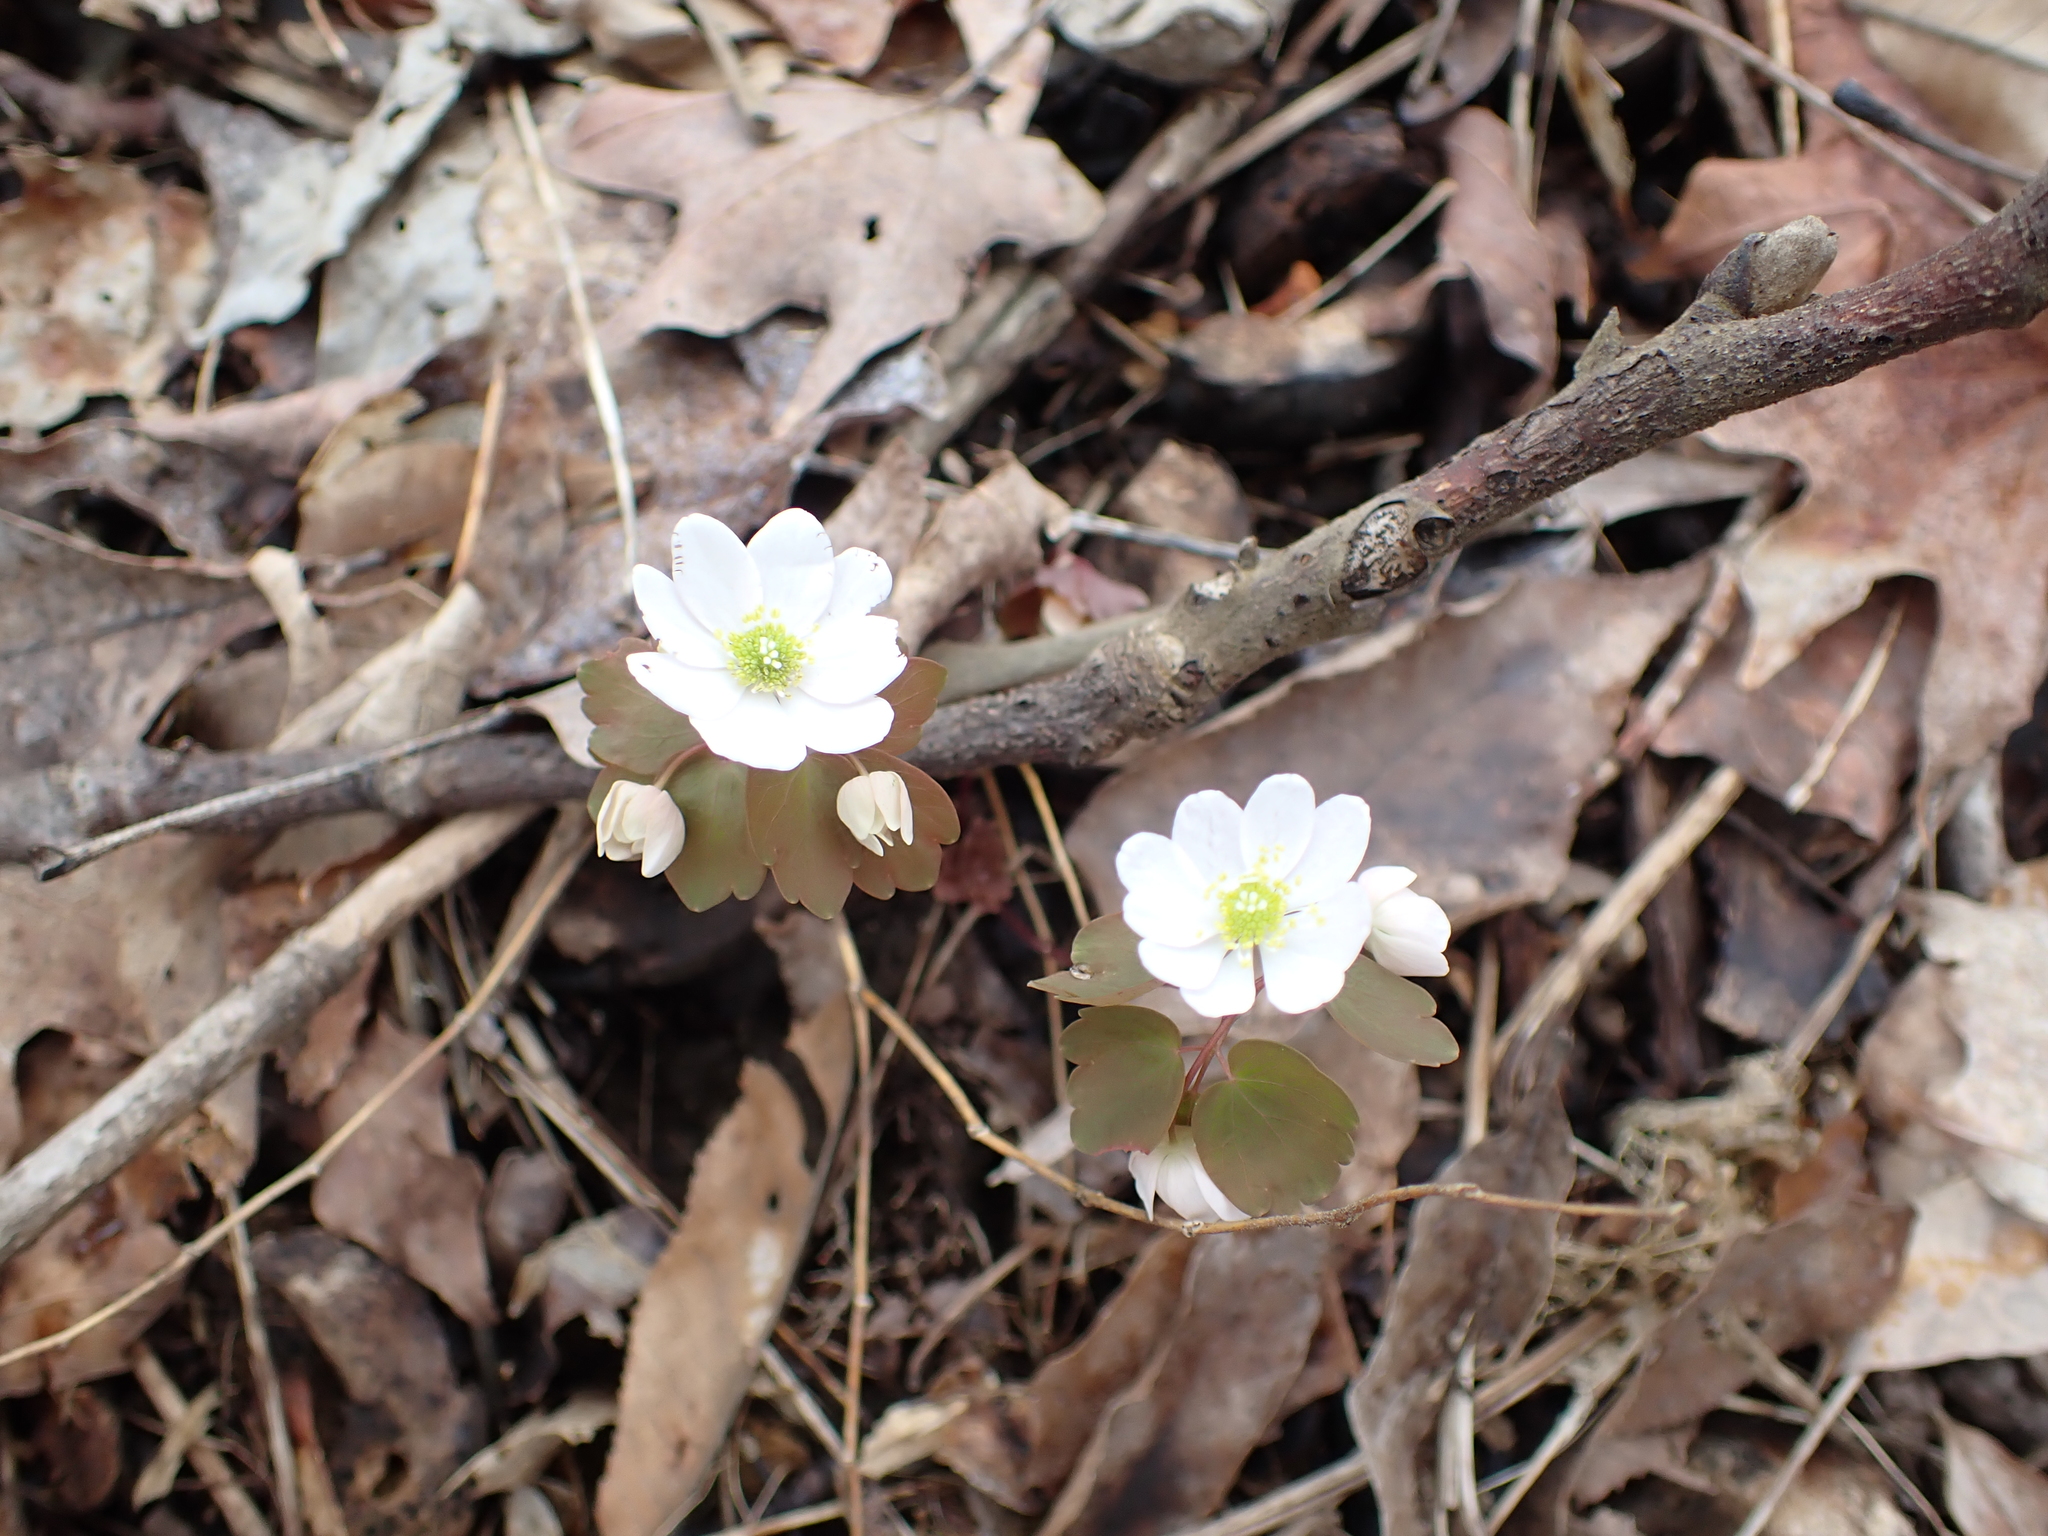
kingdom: Plantae
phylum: Tracheophyta
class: Magnoliopsida
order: Ranunculales
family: Ranunculaceae
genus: Thalictrum
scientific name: Thalictrum thalictroides
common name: Rue-anemone
